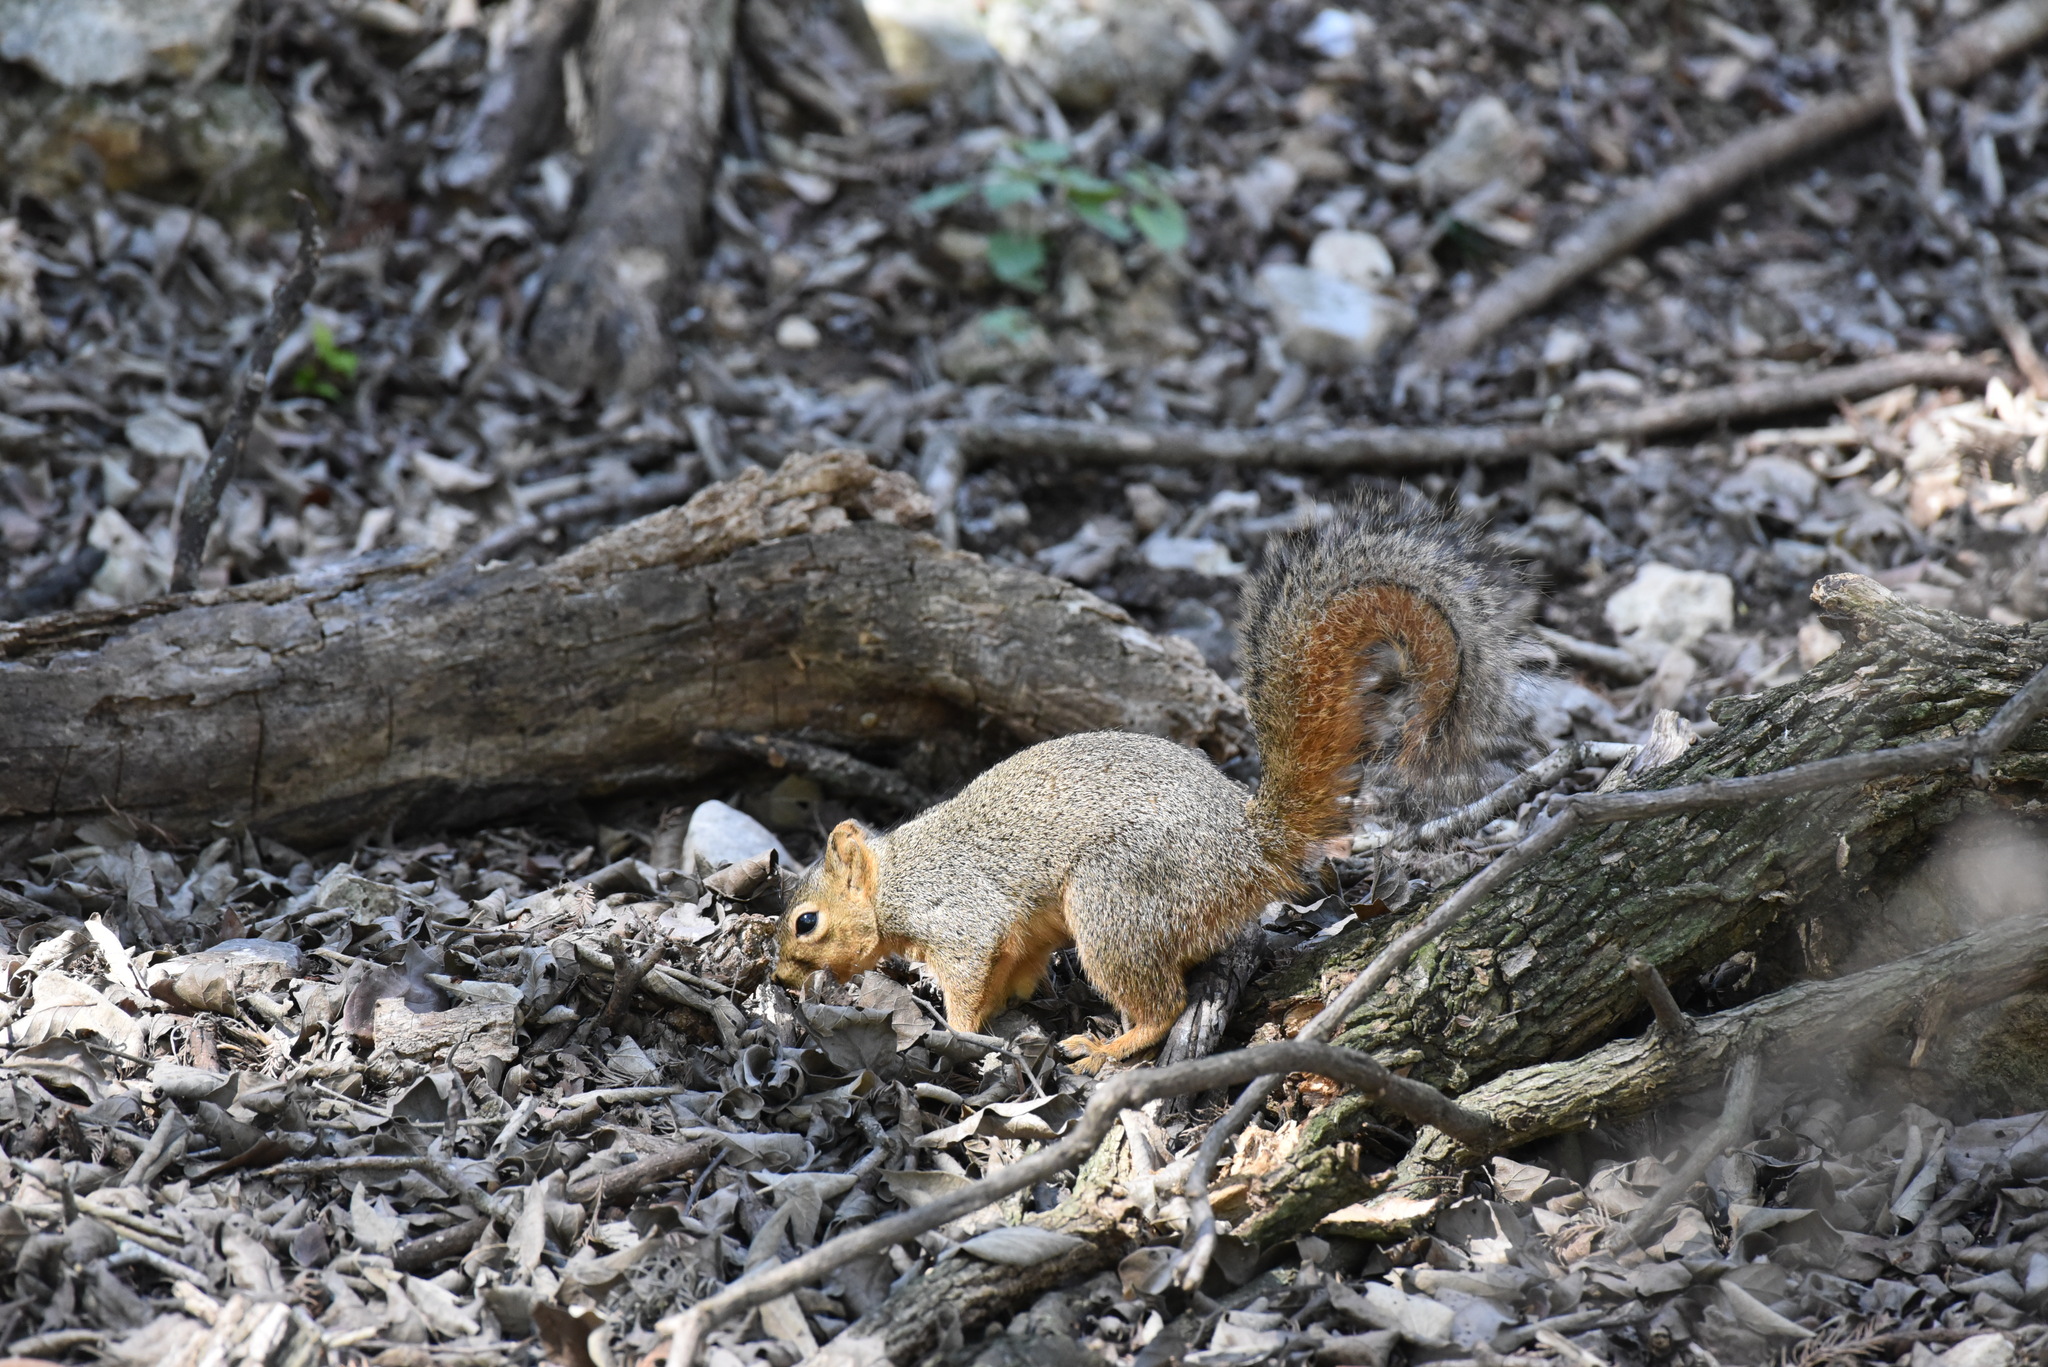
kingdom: Animalia
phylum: Chordata
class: Mammalia
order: Rodentia
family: Sciuridae
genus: Sciurus
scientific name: Sciurus niger
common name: Fox squirrel
